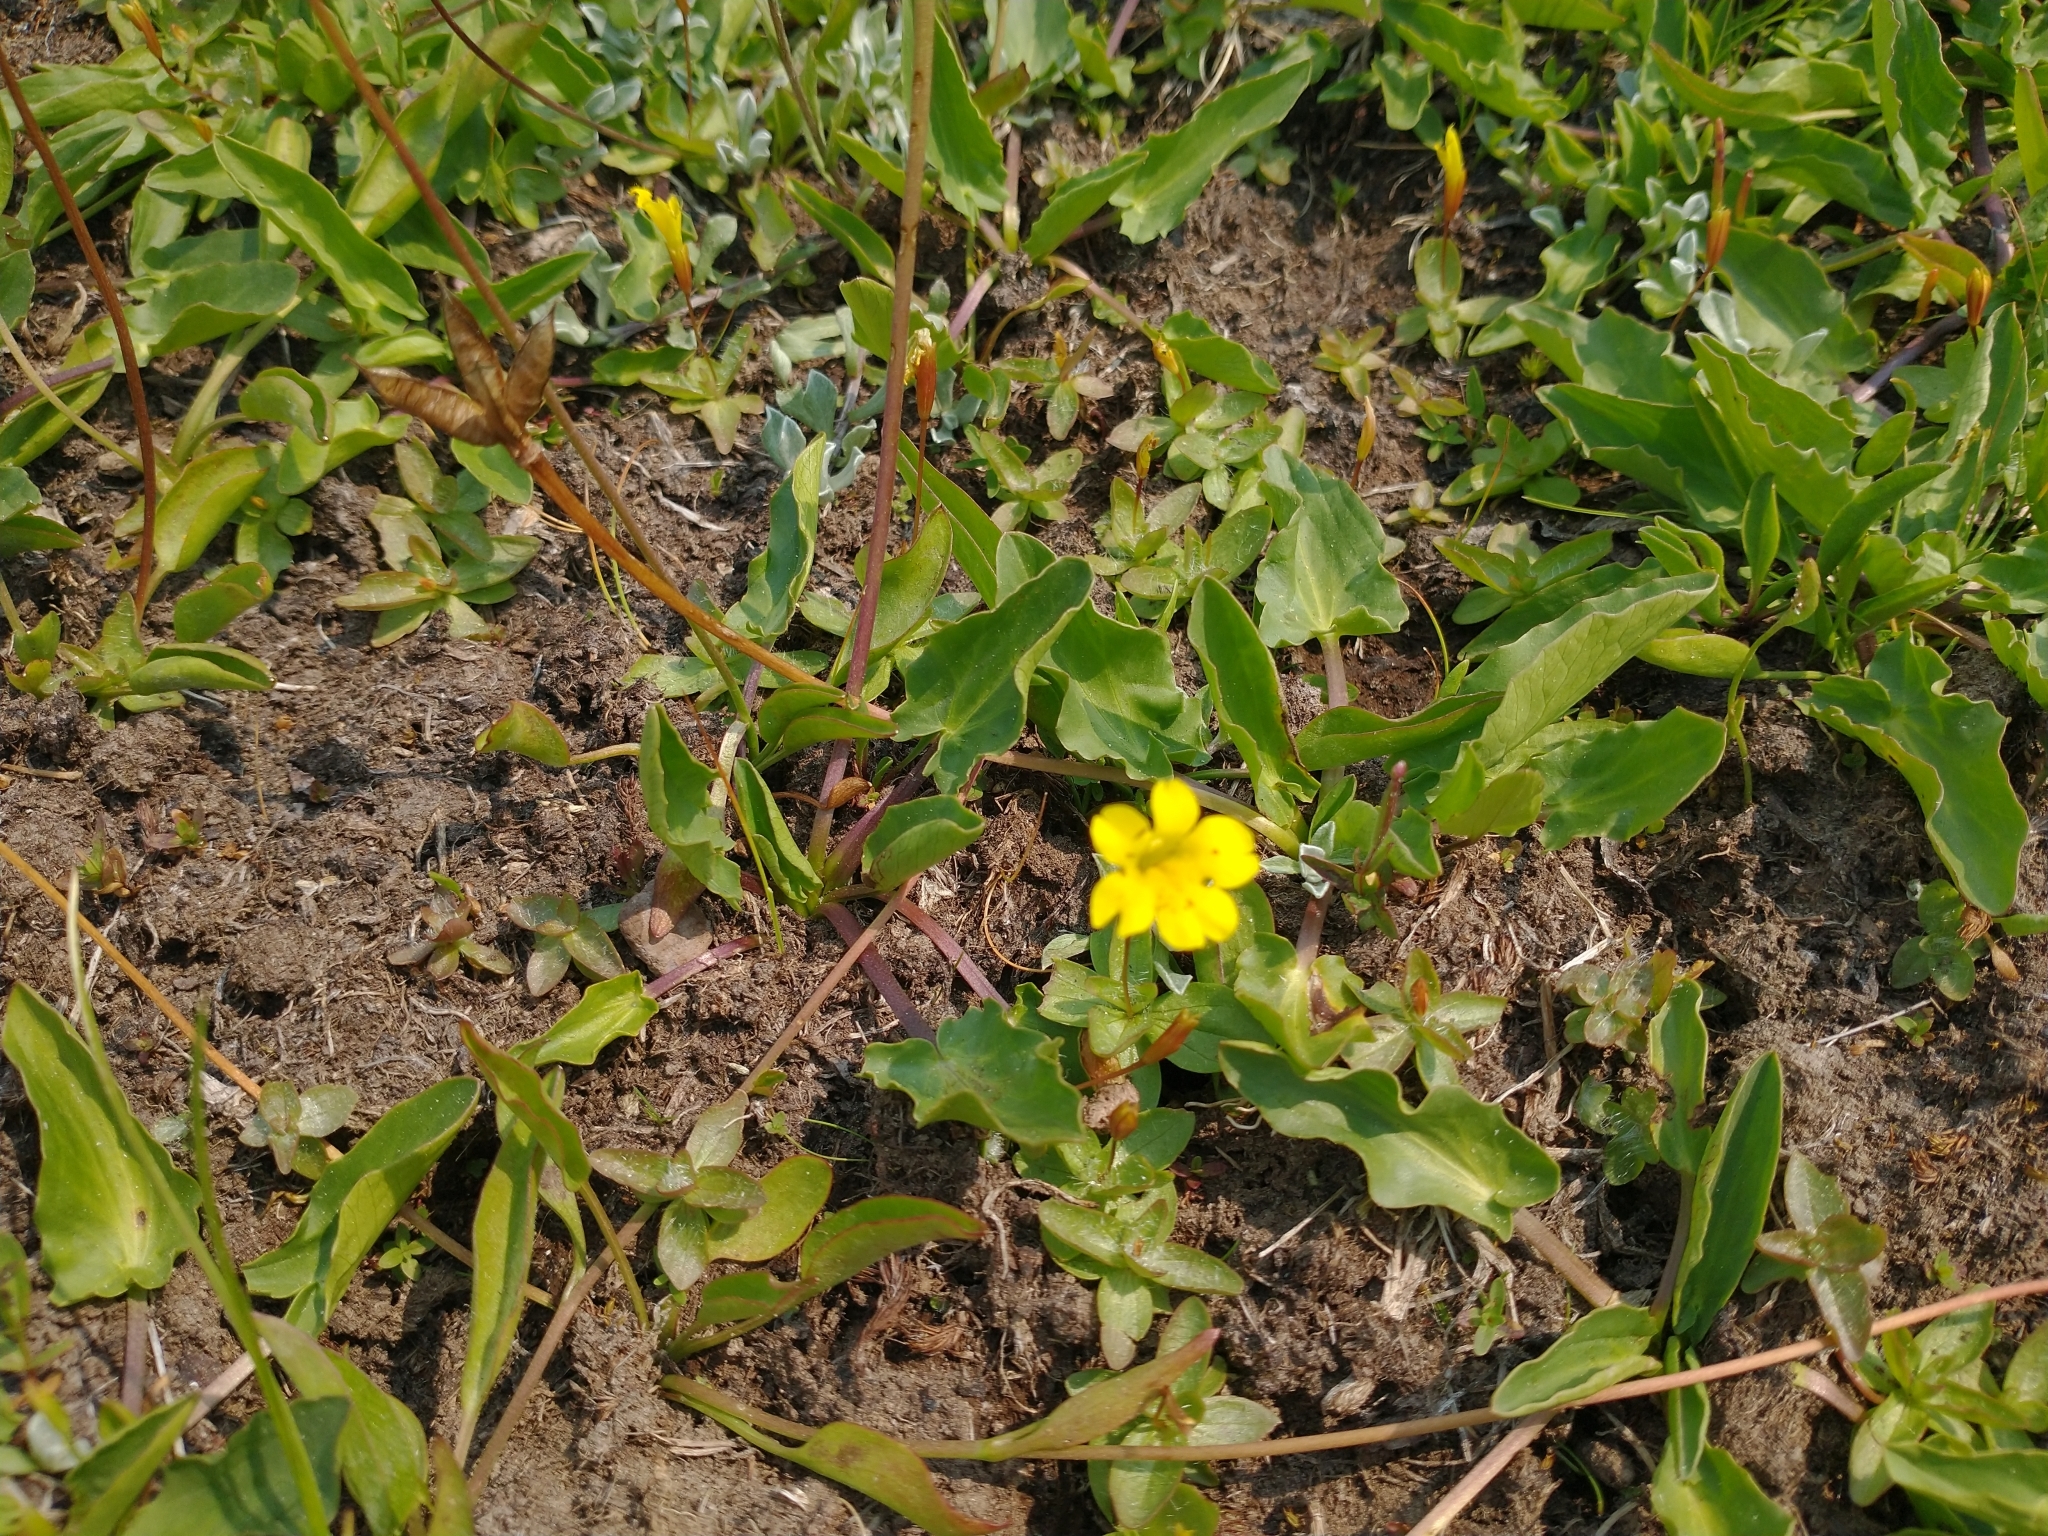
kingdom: Plantae
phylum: Tracheophyta
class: Magnoliopsida
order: Lamiales
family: Phrymaceae
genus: Erythranthe
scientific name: Erythranthe primuloides
